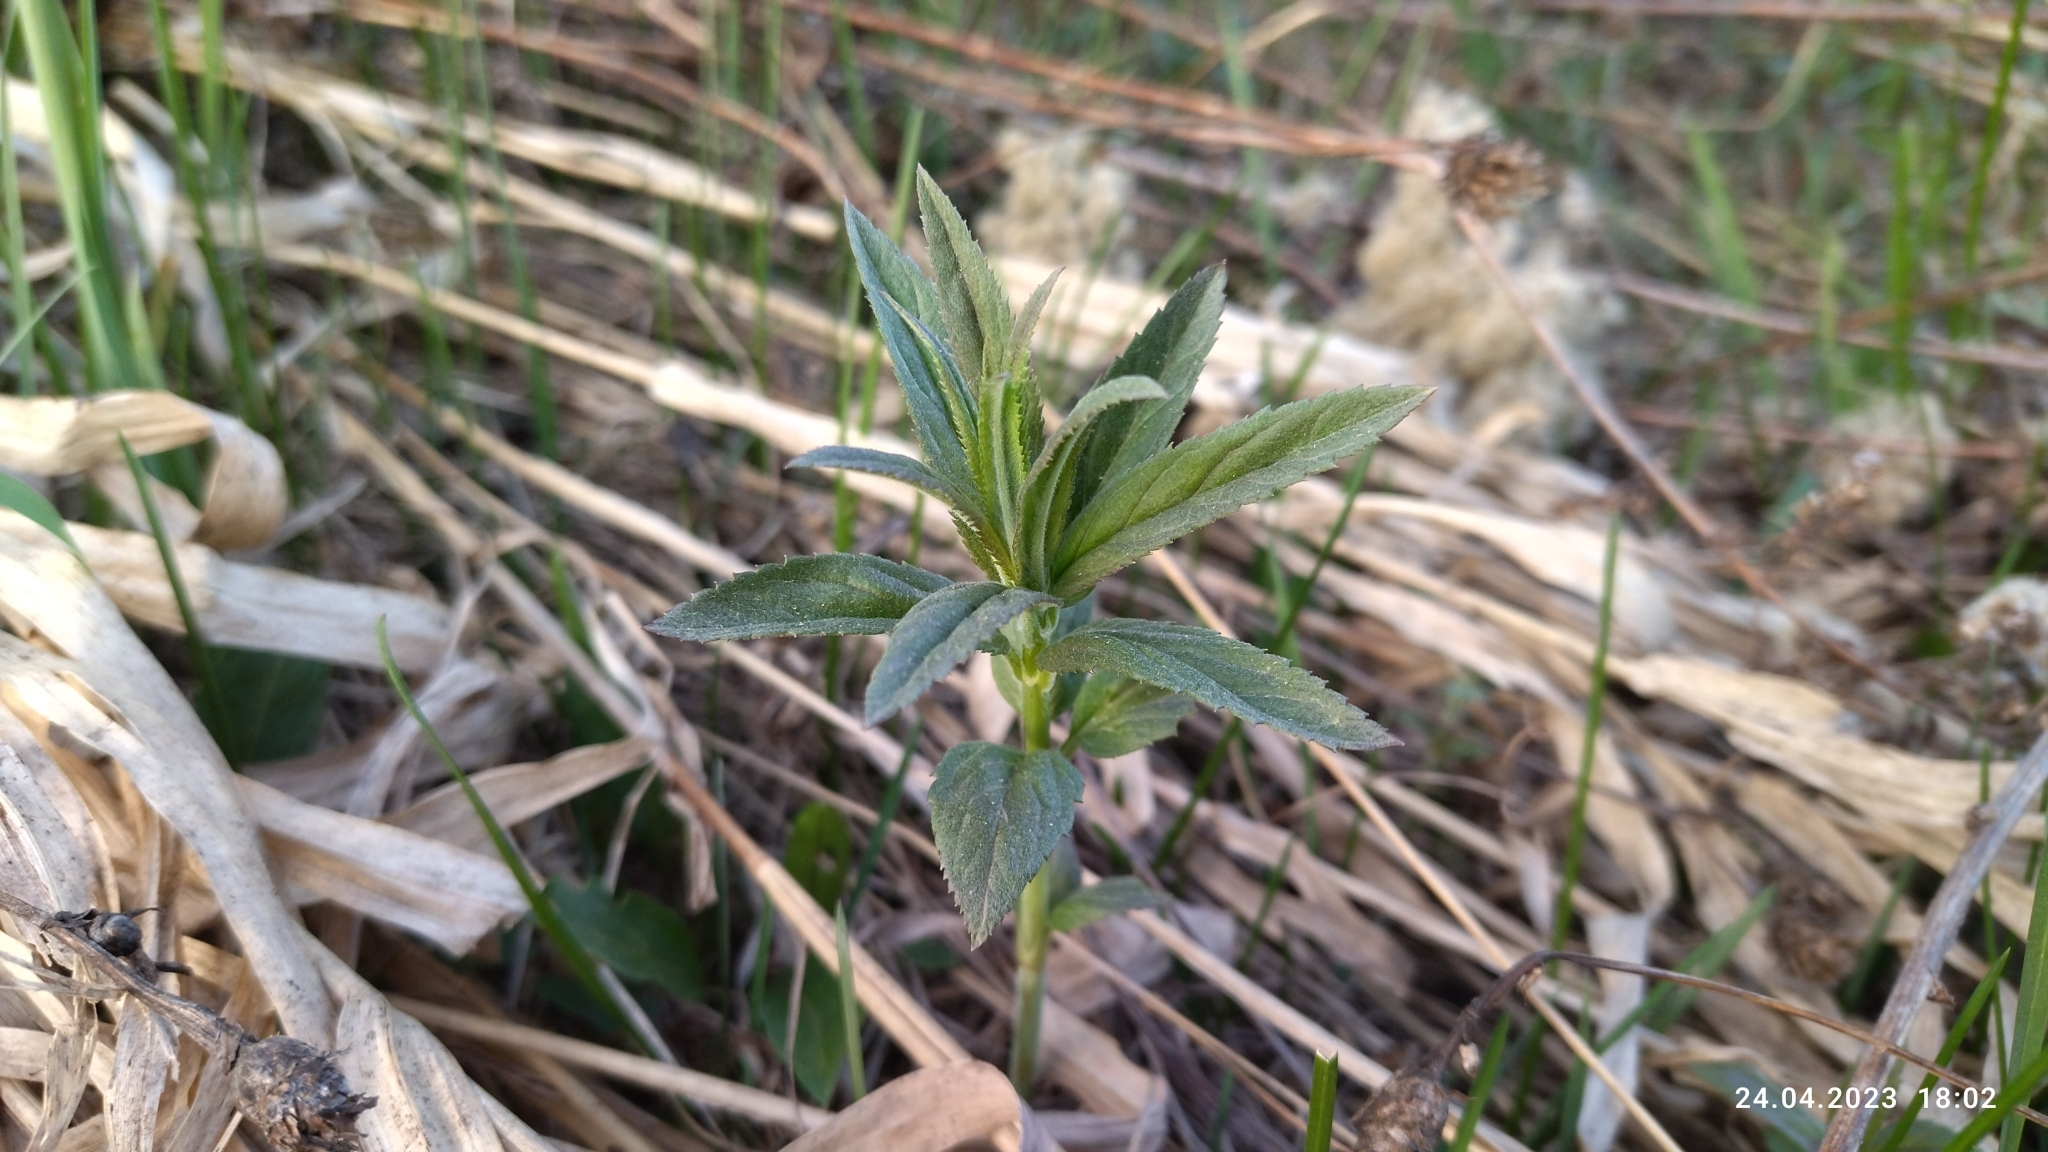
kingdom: Plantae
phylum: Tracheophyta
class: Magnoliopsida
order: Lamiales
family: Plantaginaceae
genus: Veronica
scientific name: Veronica longifolia
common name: Garden speedwell
